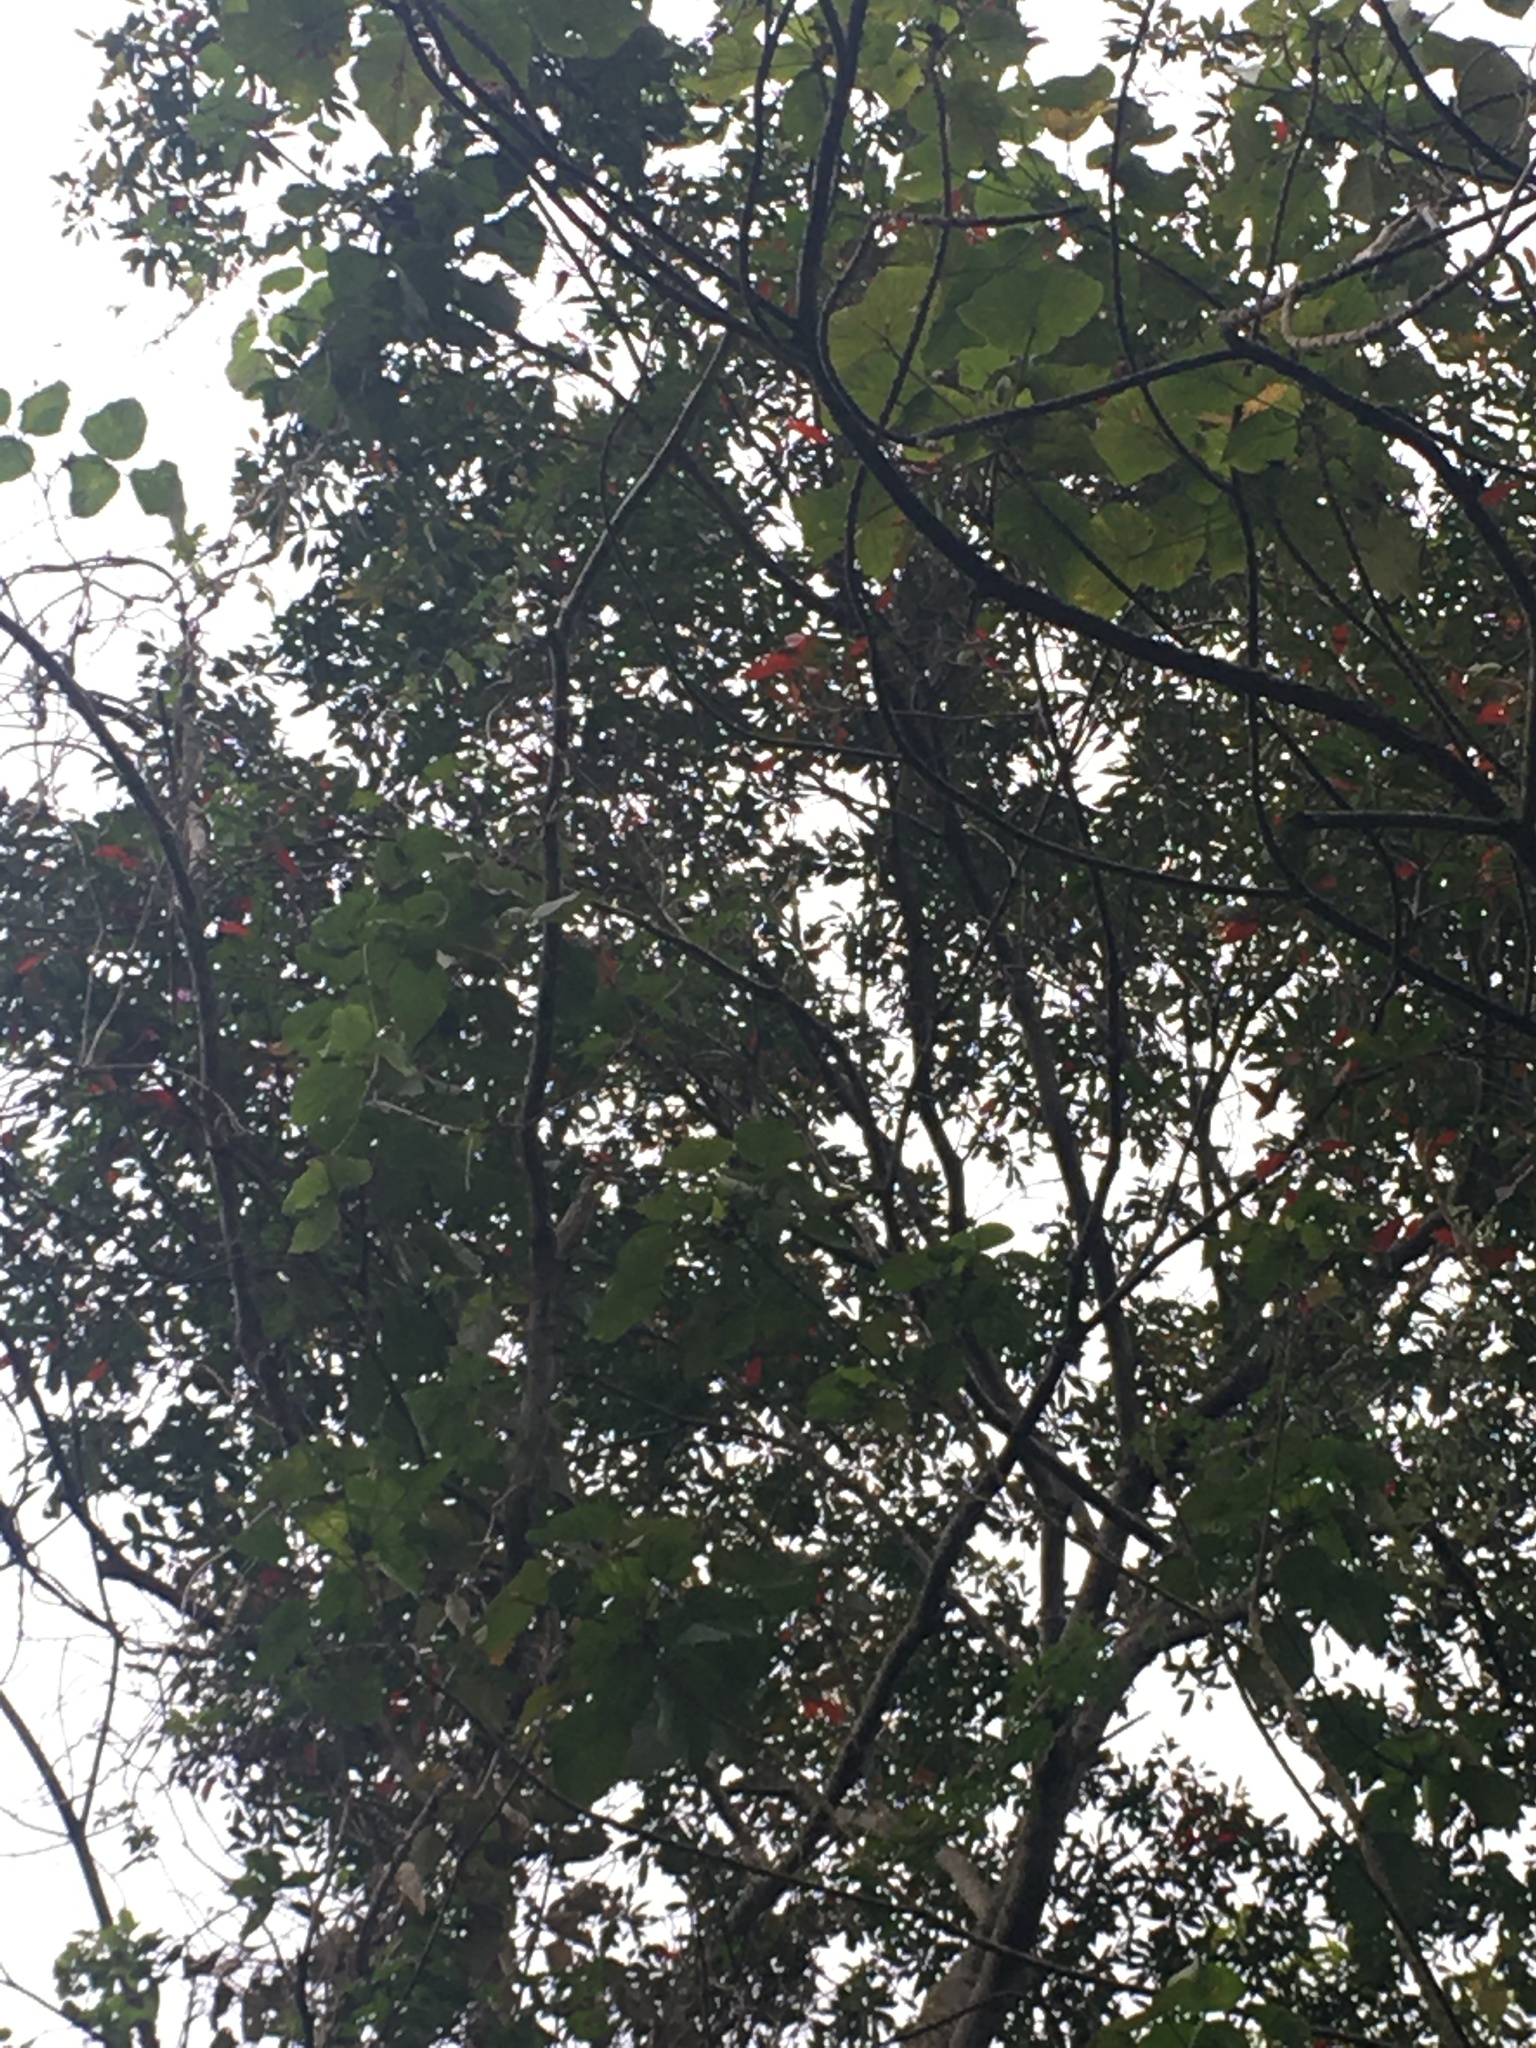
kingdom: Plantae
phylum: Tracheophyta
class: Magnoliopsida
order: Oxalidales
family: Elaeocarpaceae
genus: Elaeocarpus
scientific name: Elaeocarpus decipiens
